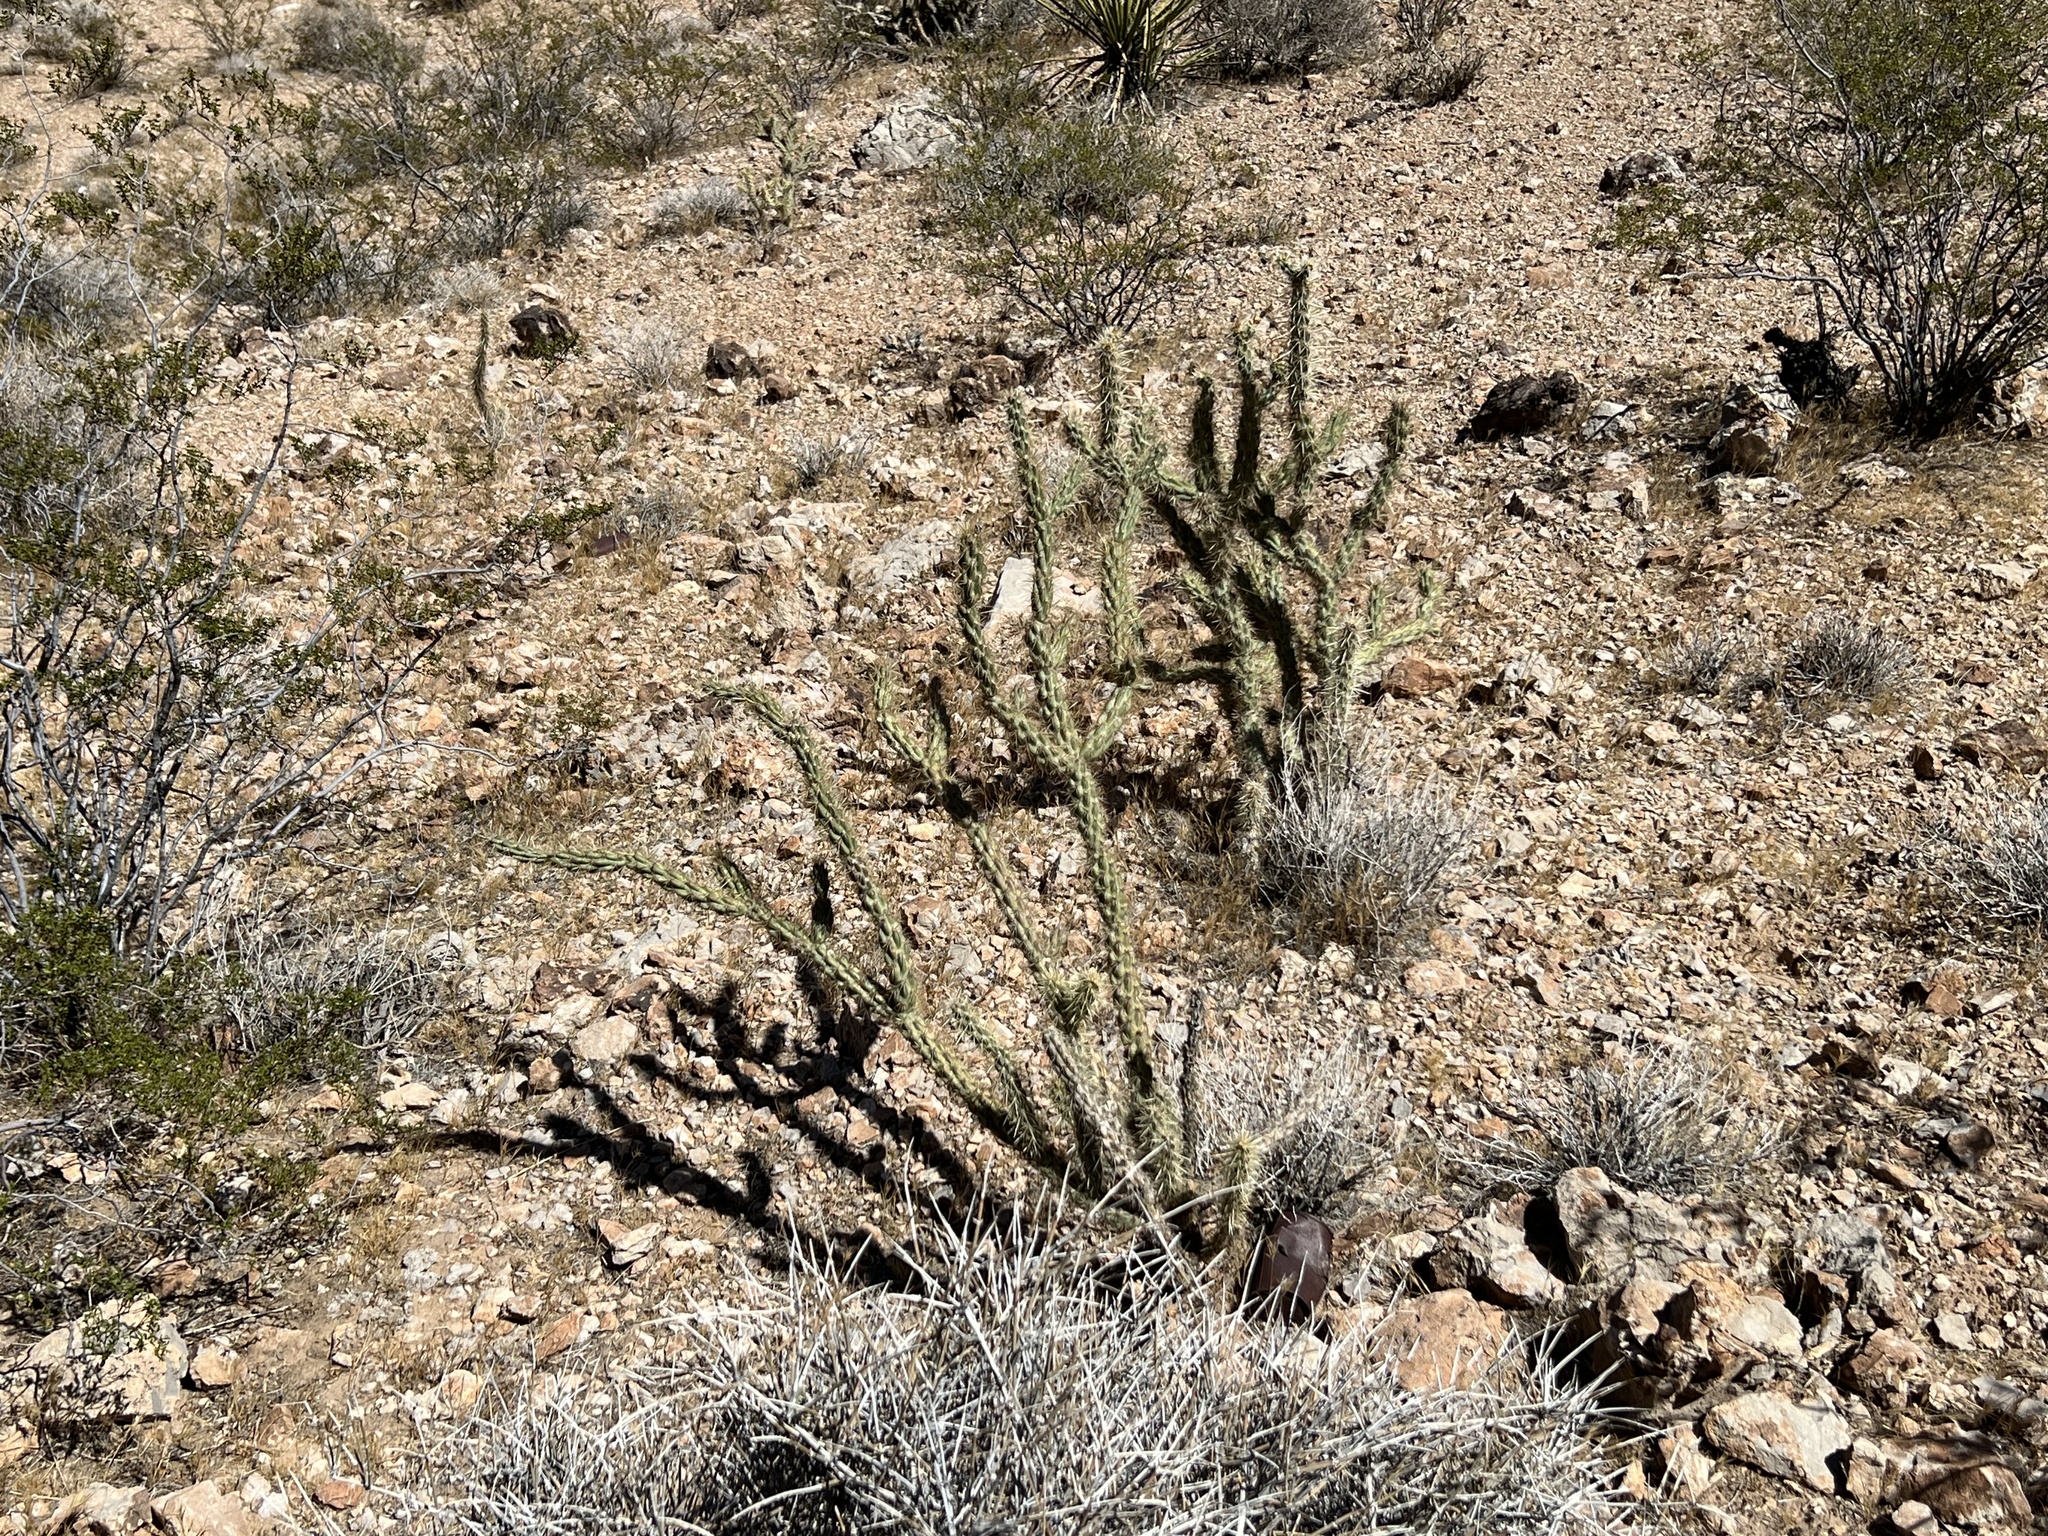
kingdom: Plantae
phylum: Tracheophyta
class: Magnoliopsida
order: Caryophyllales
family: Cactaceae
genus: Cylindropuntia
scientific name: Cylindropuntia acanthocarpa
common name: Buckhorn cholla
